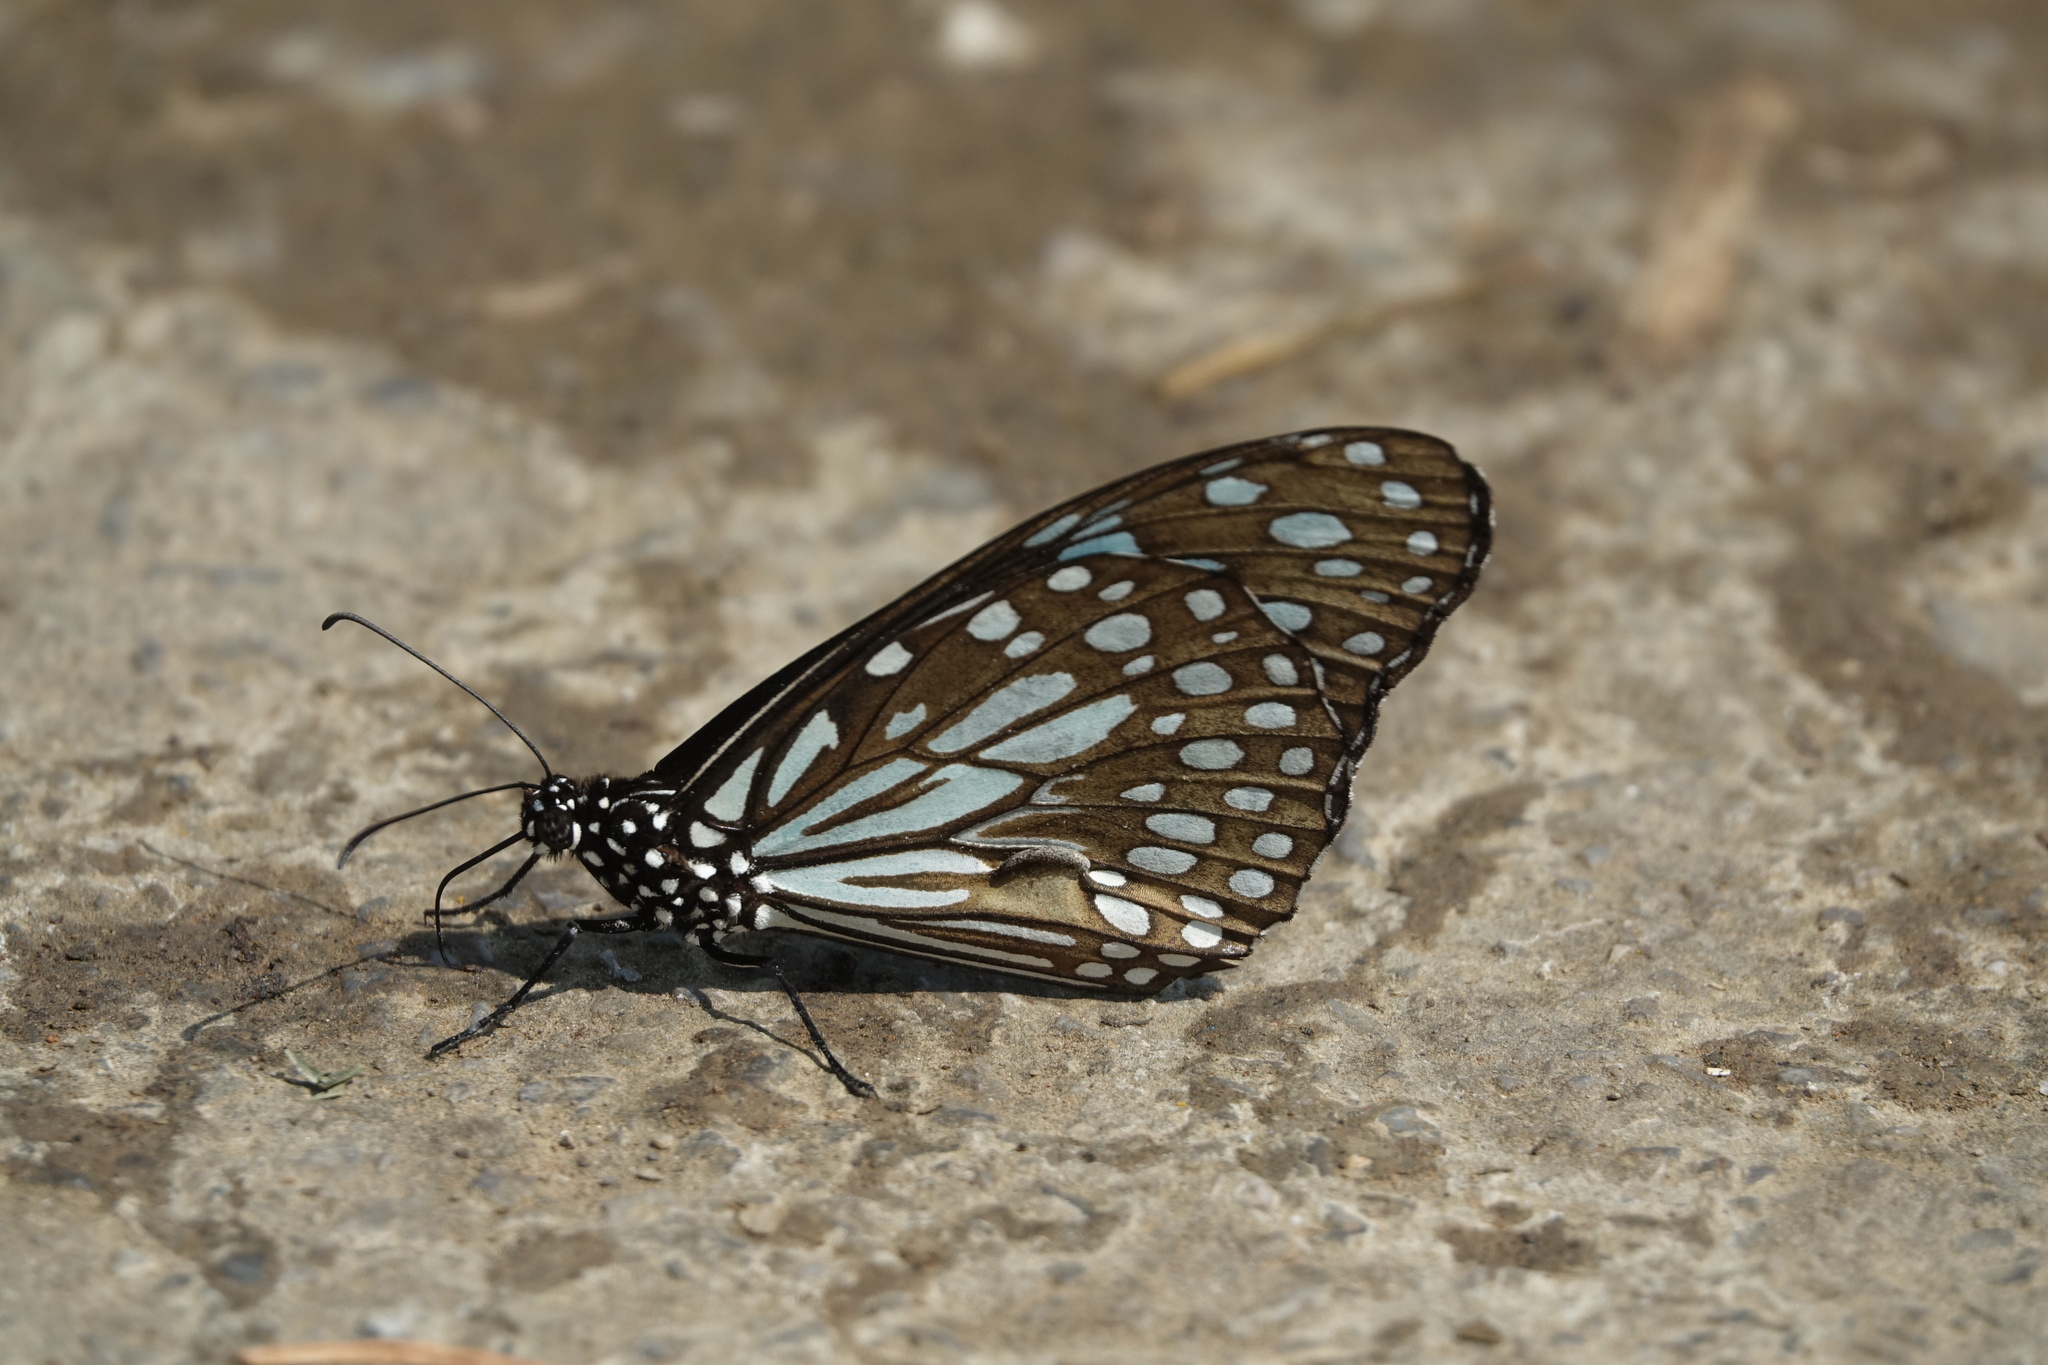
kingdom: Animalia
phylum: Arthropoda
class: Insecta
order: Lepidoptera
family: Nymphalidae
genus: Tirumala
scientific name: Tirumala limniace
